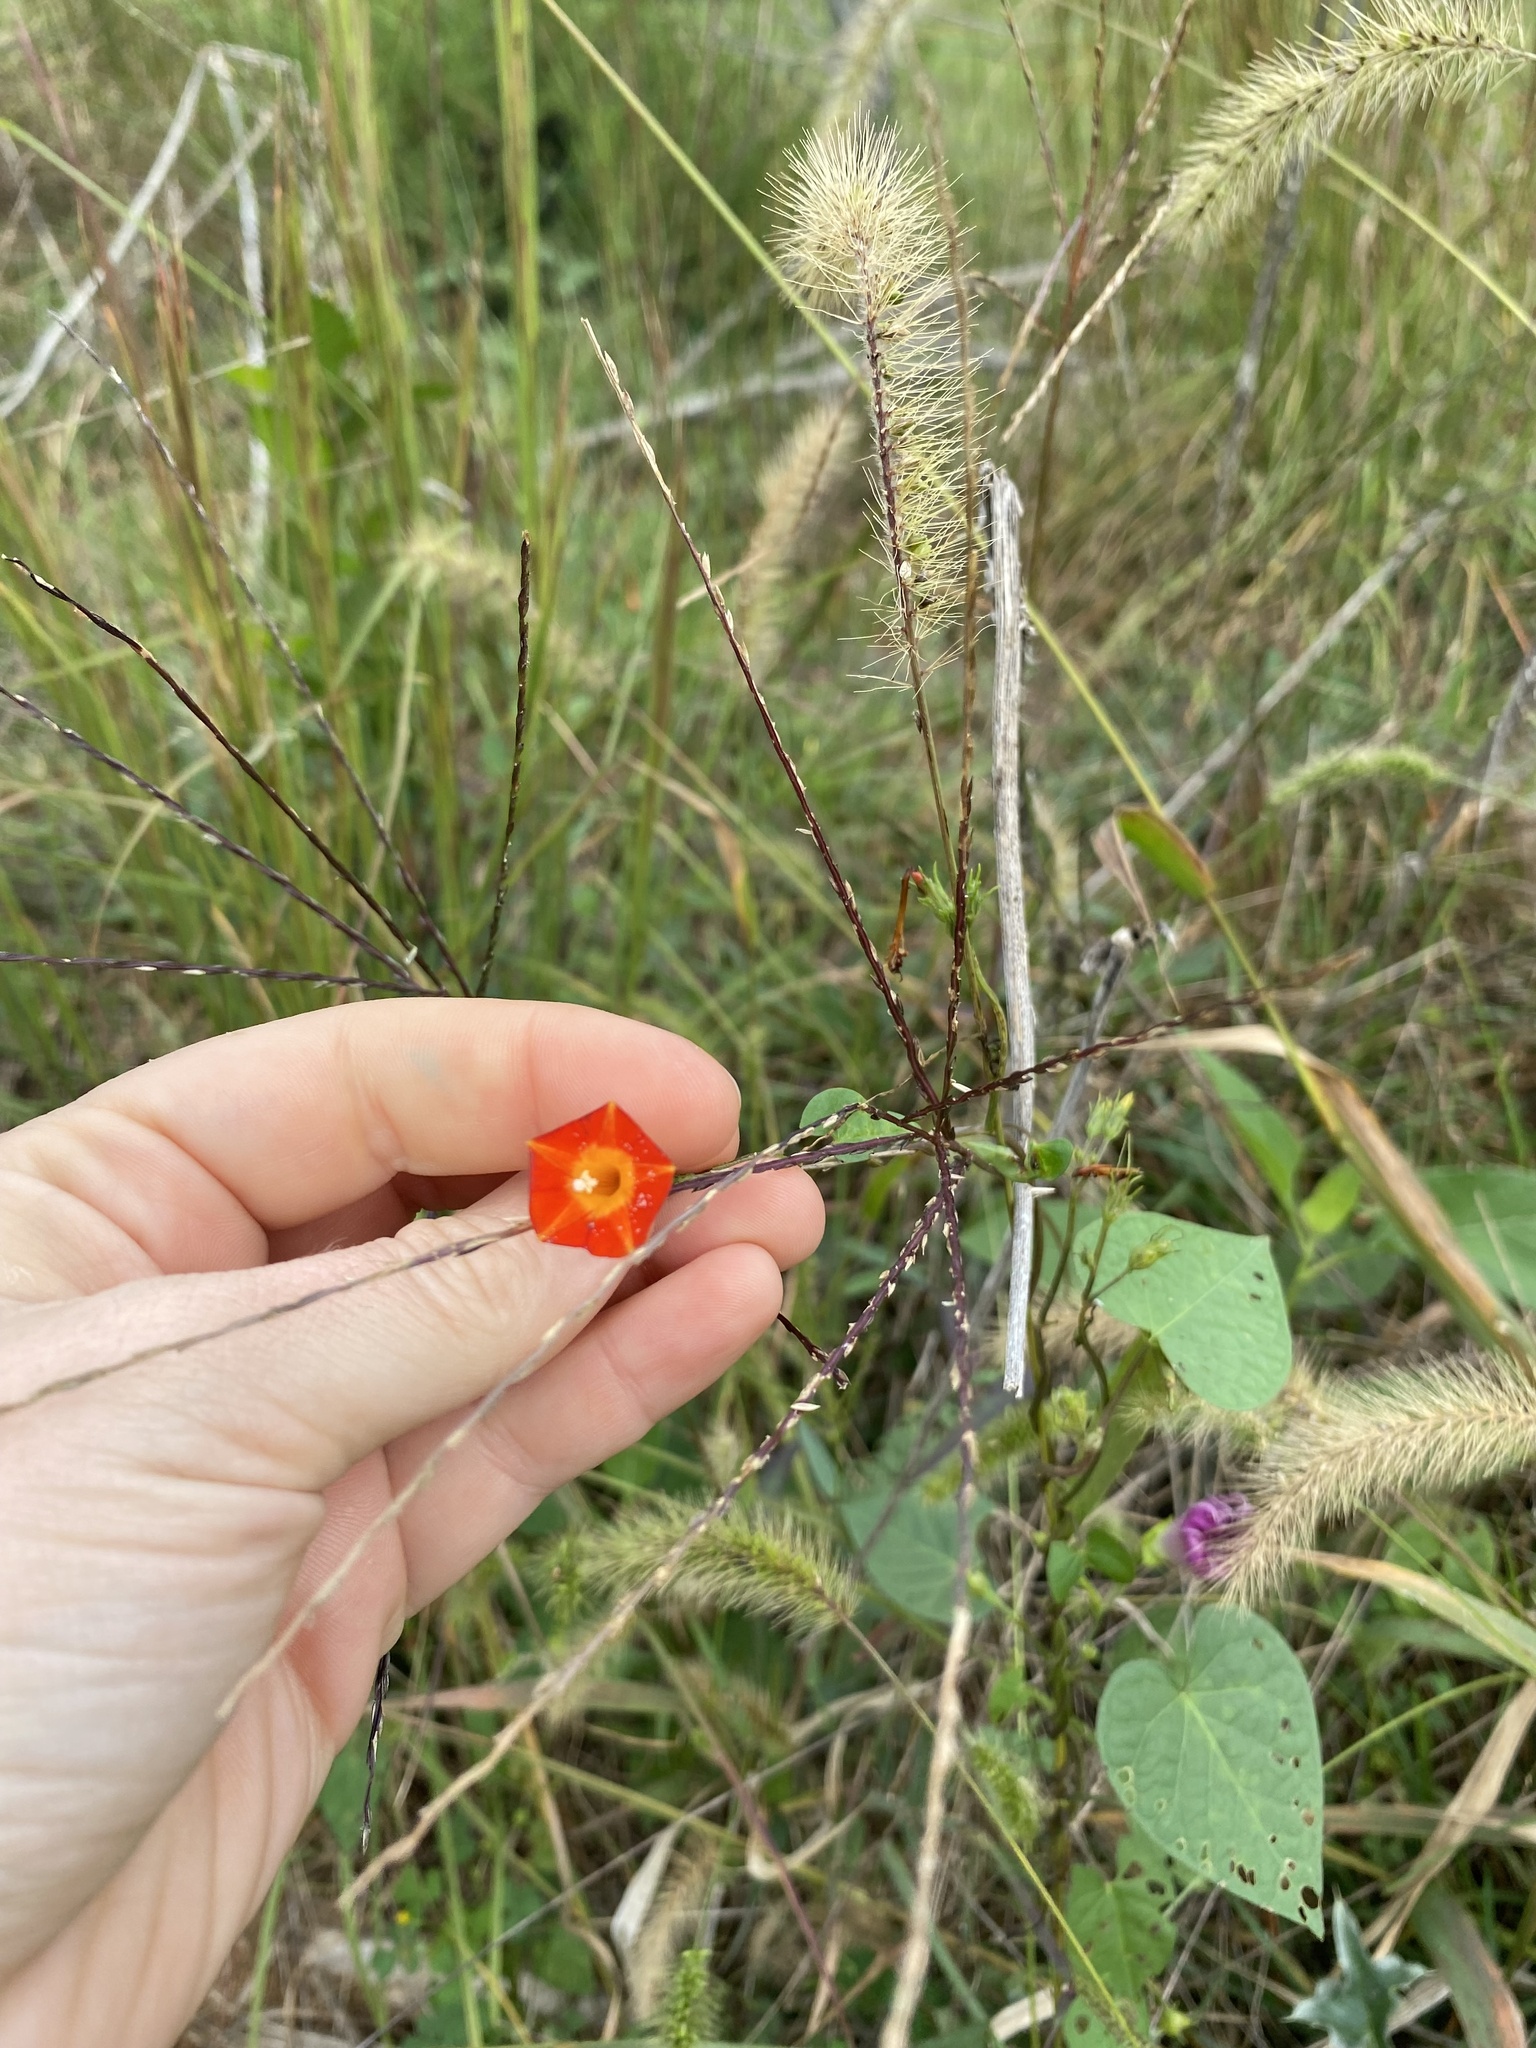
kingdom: Plantae
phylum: Tracheophyta
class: Magnoliopsida
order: Solanales
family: Convolvulaceae
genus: Ipomoea
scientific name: Ipomoea coccinea
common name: Red morning-glory
